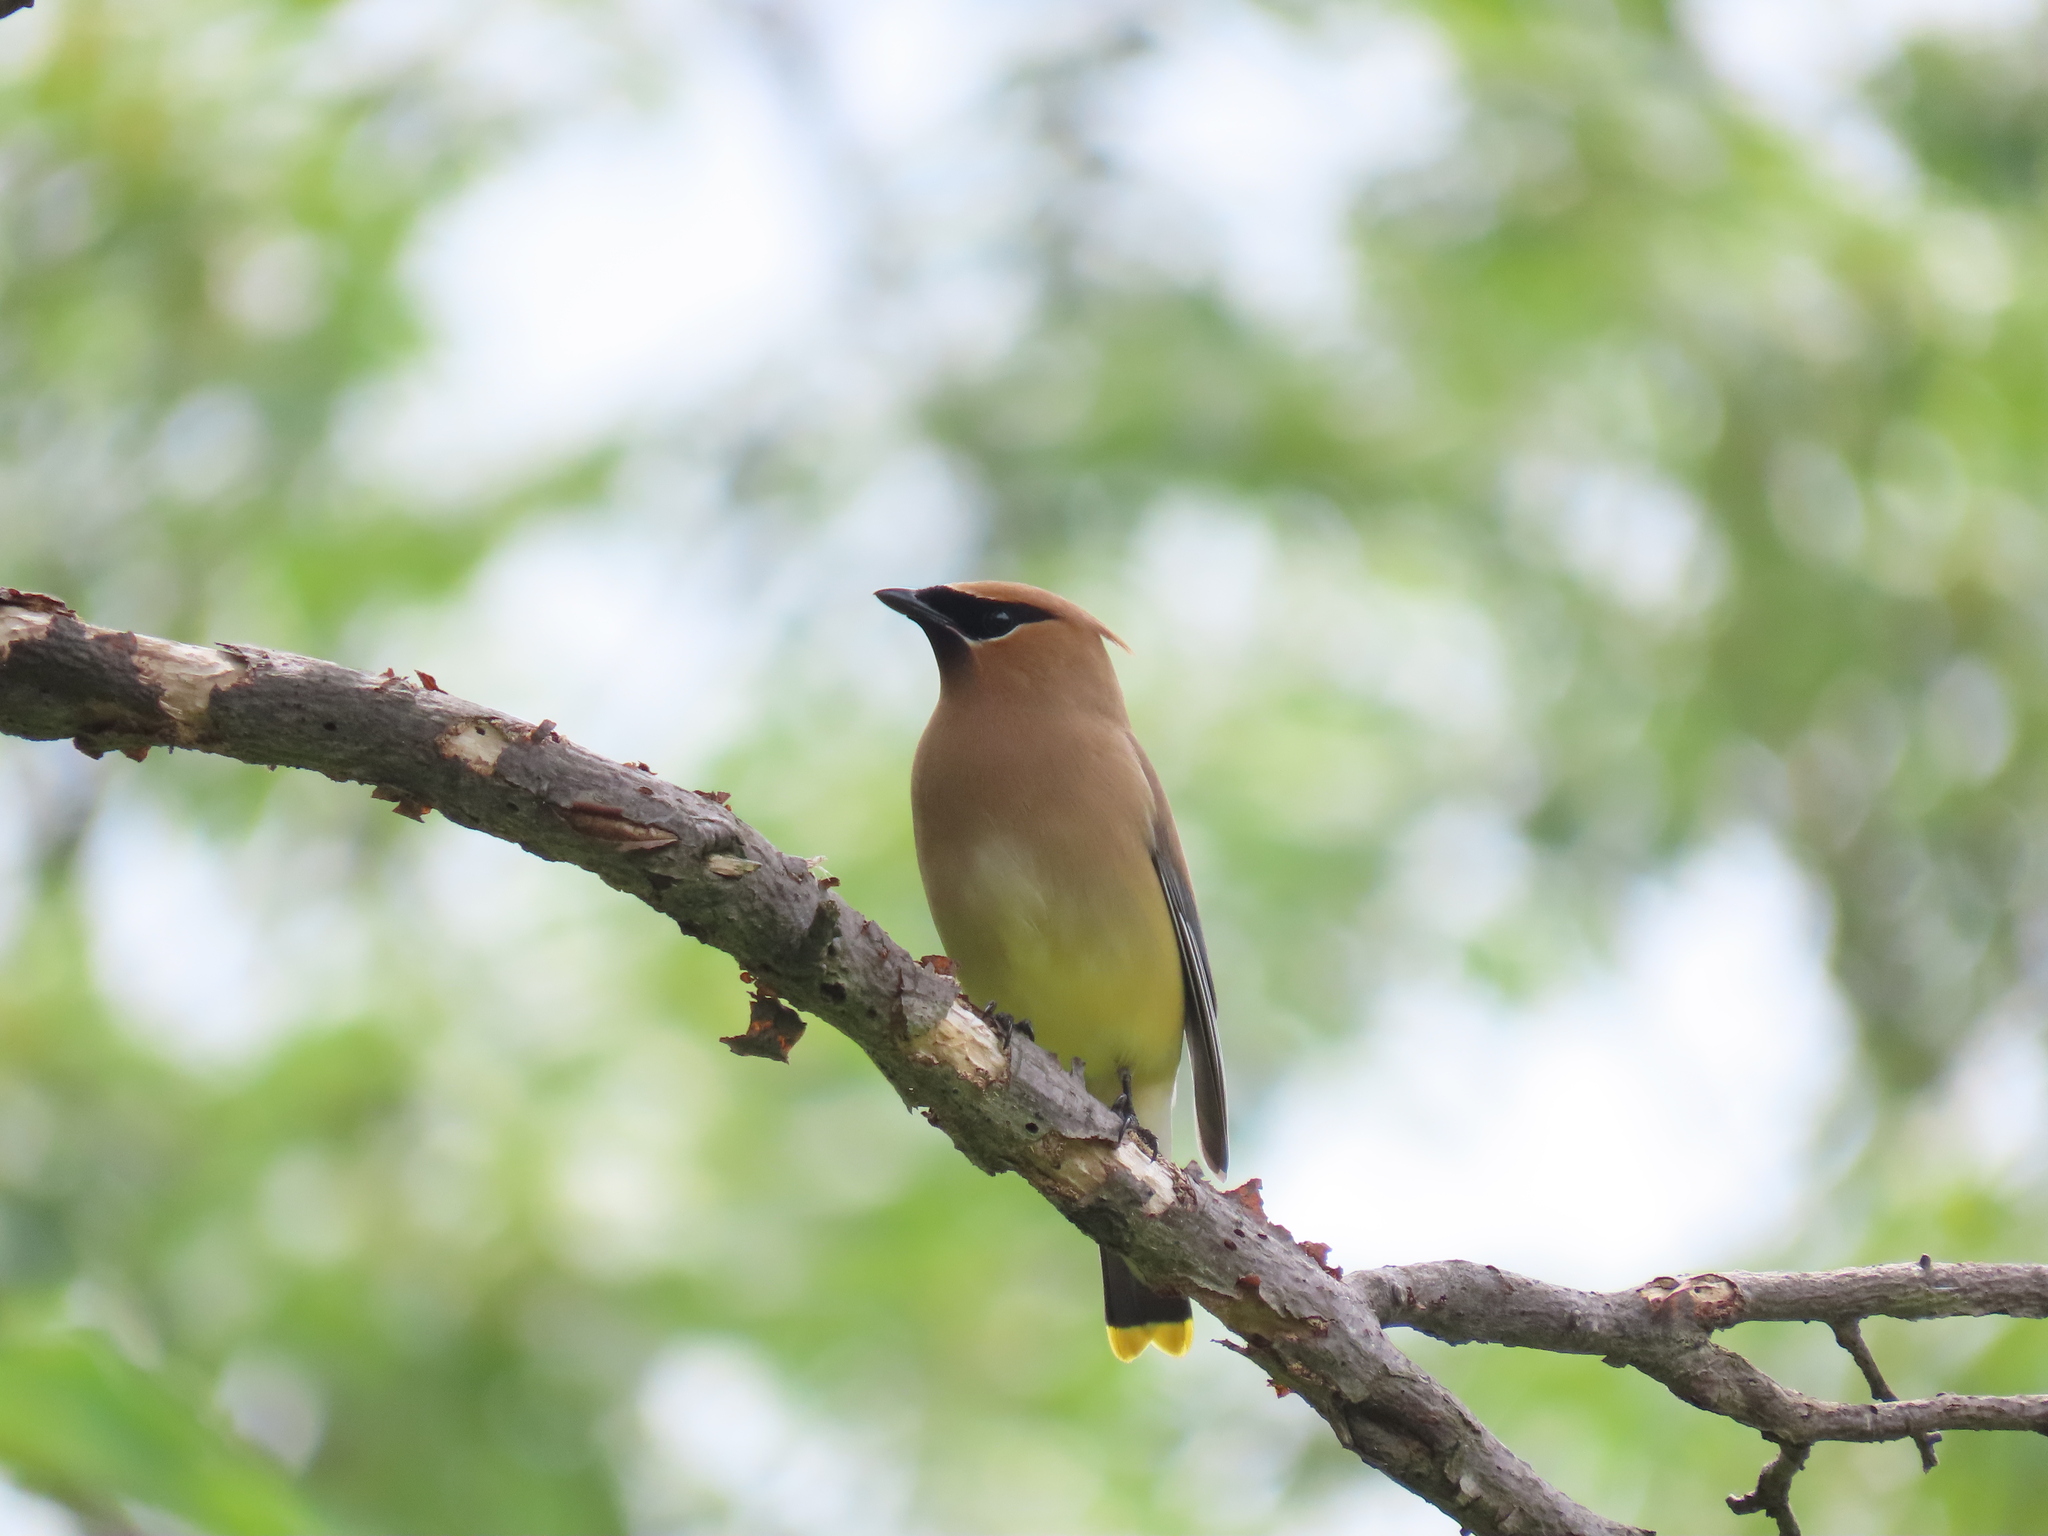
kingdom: Animalia
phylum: Chordata
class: Aves
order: Passeriformes
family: Bombycillidae
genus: Bombycilla
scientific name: Bombycilla cedrorum
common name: Cedar waxwing
